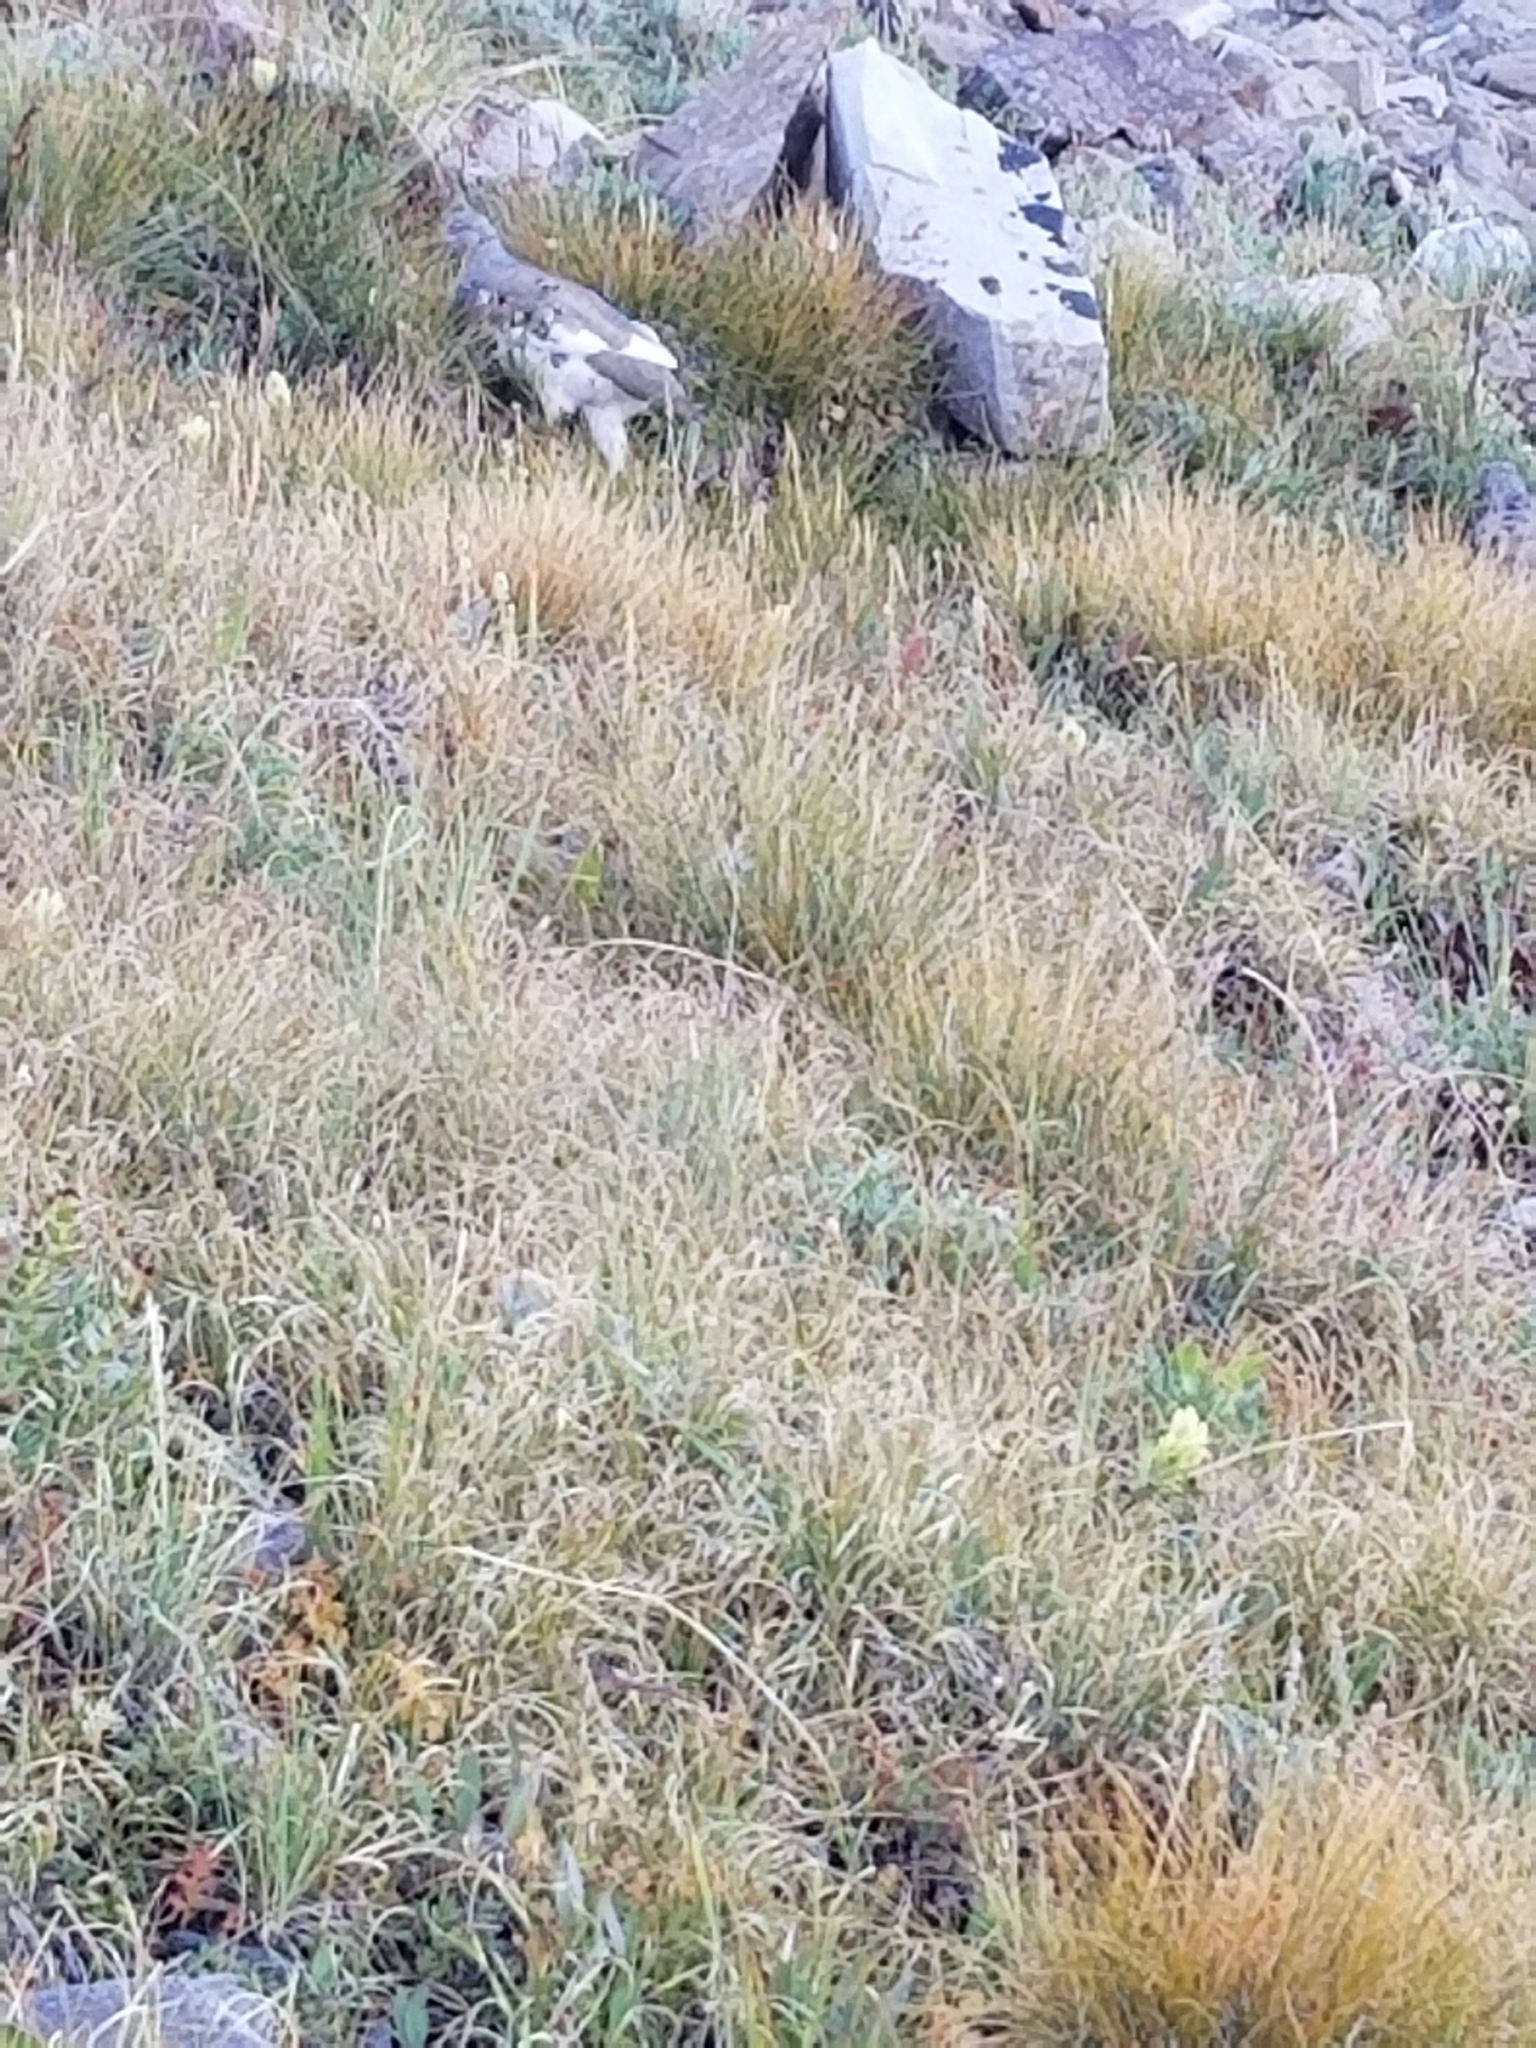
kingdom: Animalia
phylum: Chordata
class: Aves
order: Galliformes
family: Phasianidae
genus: Lagopus
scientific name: Lagopus leucura
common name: White-tailed ptarmigan
